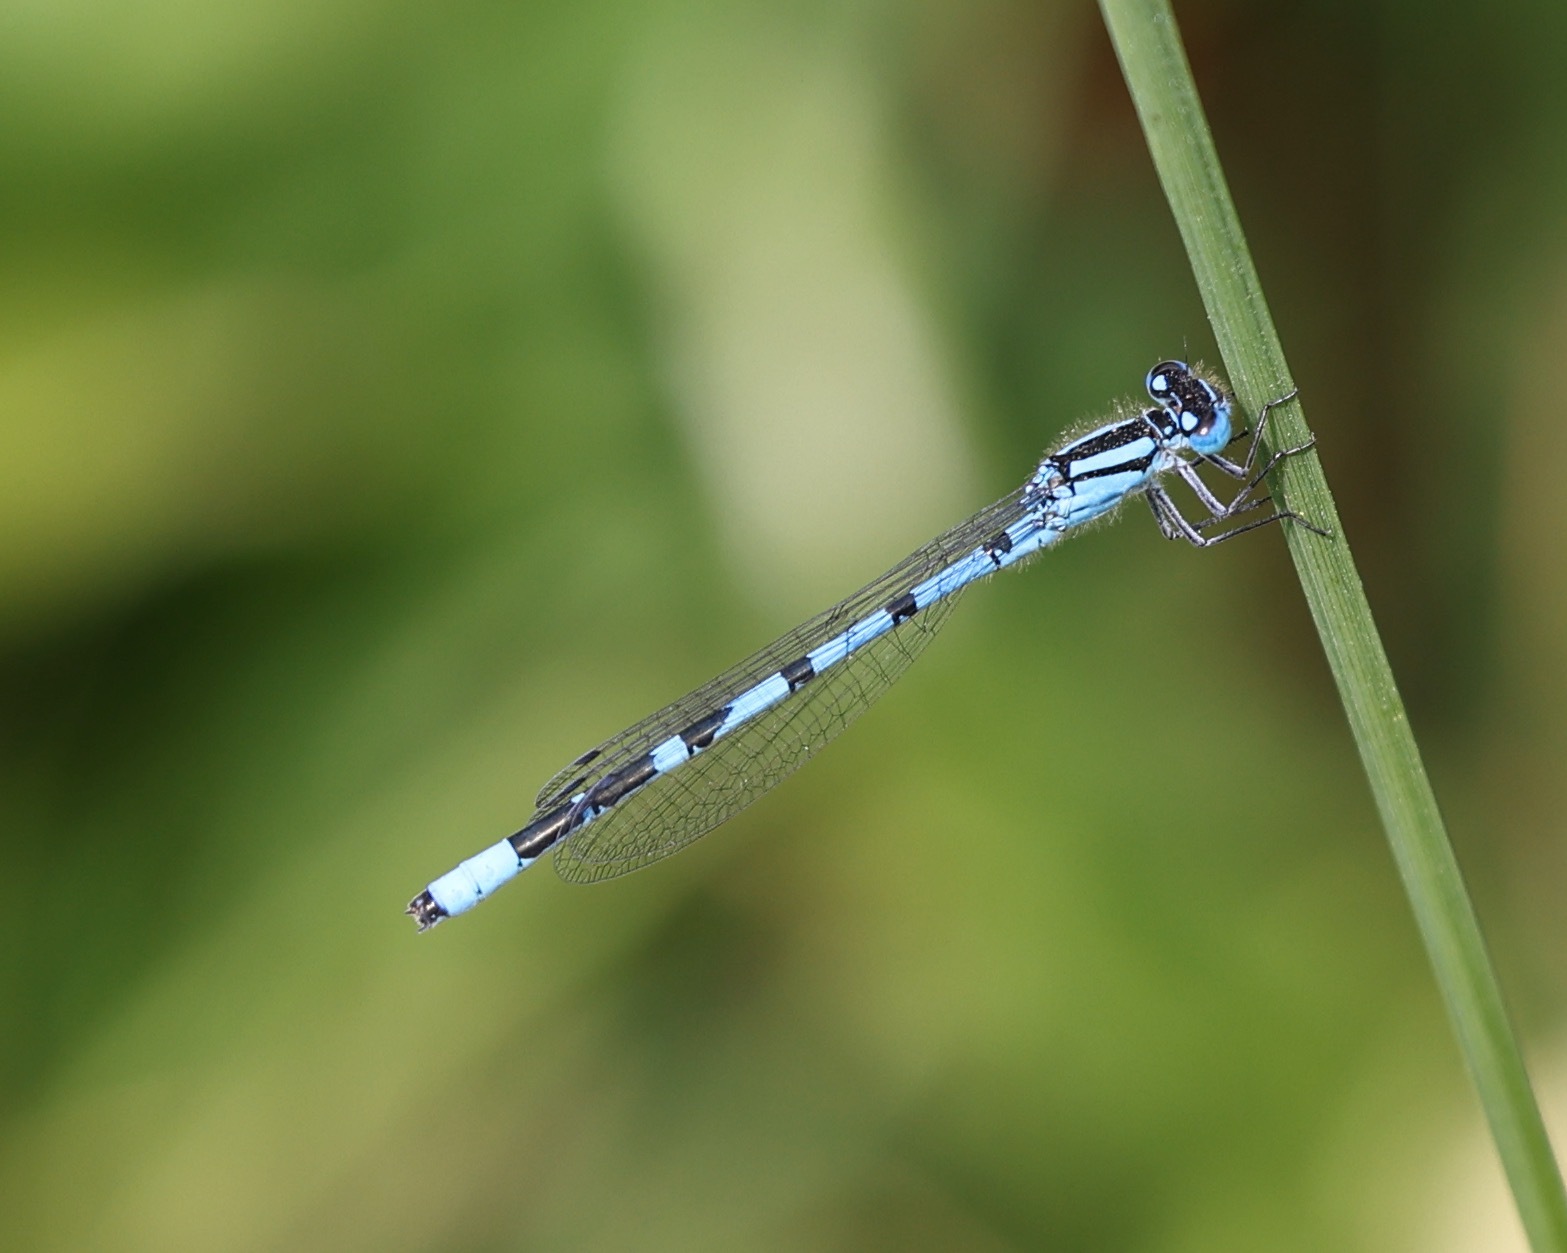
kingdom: Animalia
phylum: Arthropoda
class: Insecta
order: Odonata
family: Coenagrionidae
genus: Enallagma
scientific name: Enallagma cyathigerum
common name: Common blue damselfly
